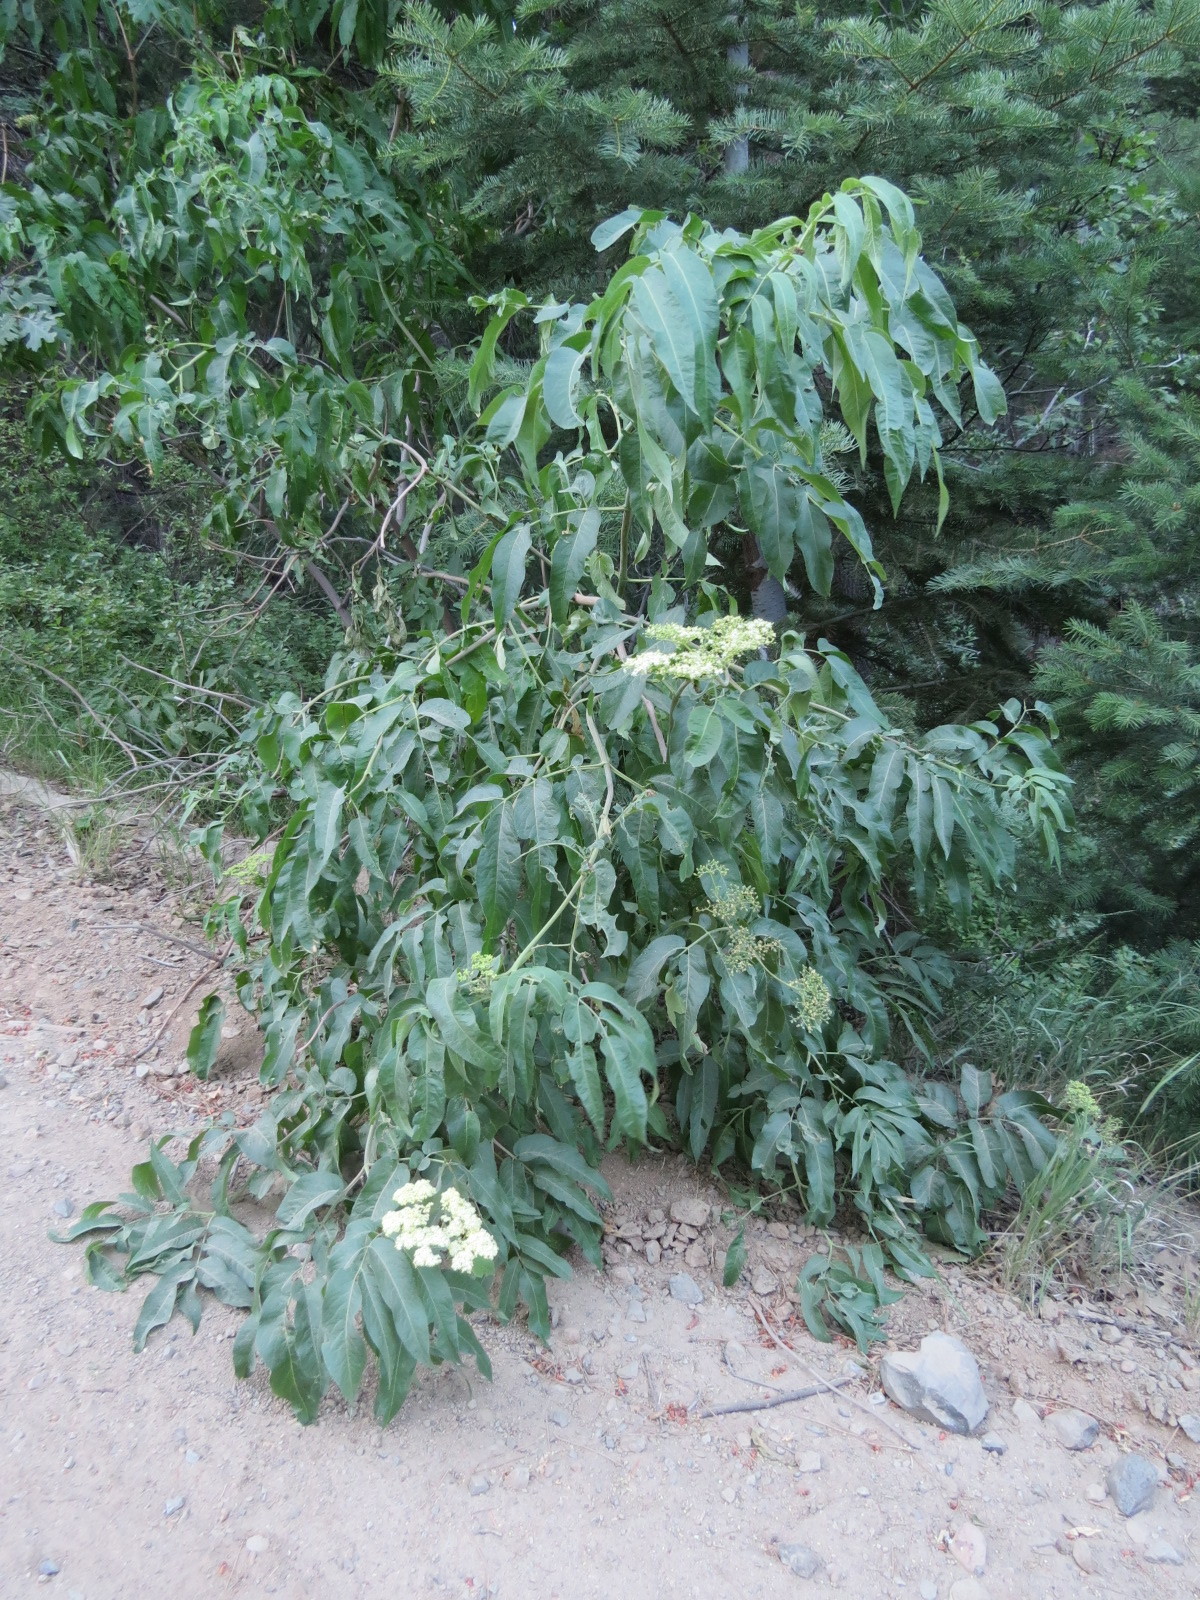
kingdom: Plantae
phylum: Tracheophyta
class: Magnoliopsida
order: Dipsacales
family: Viburnaceae
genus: Sambucus
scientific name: Sambucus cerulea
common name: Blue elder
